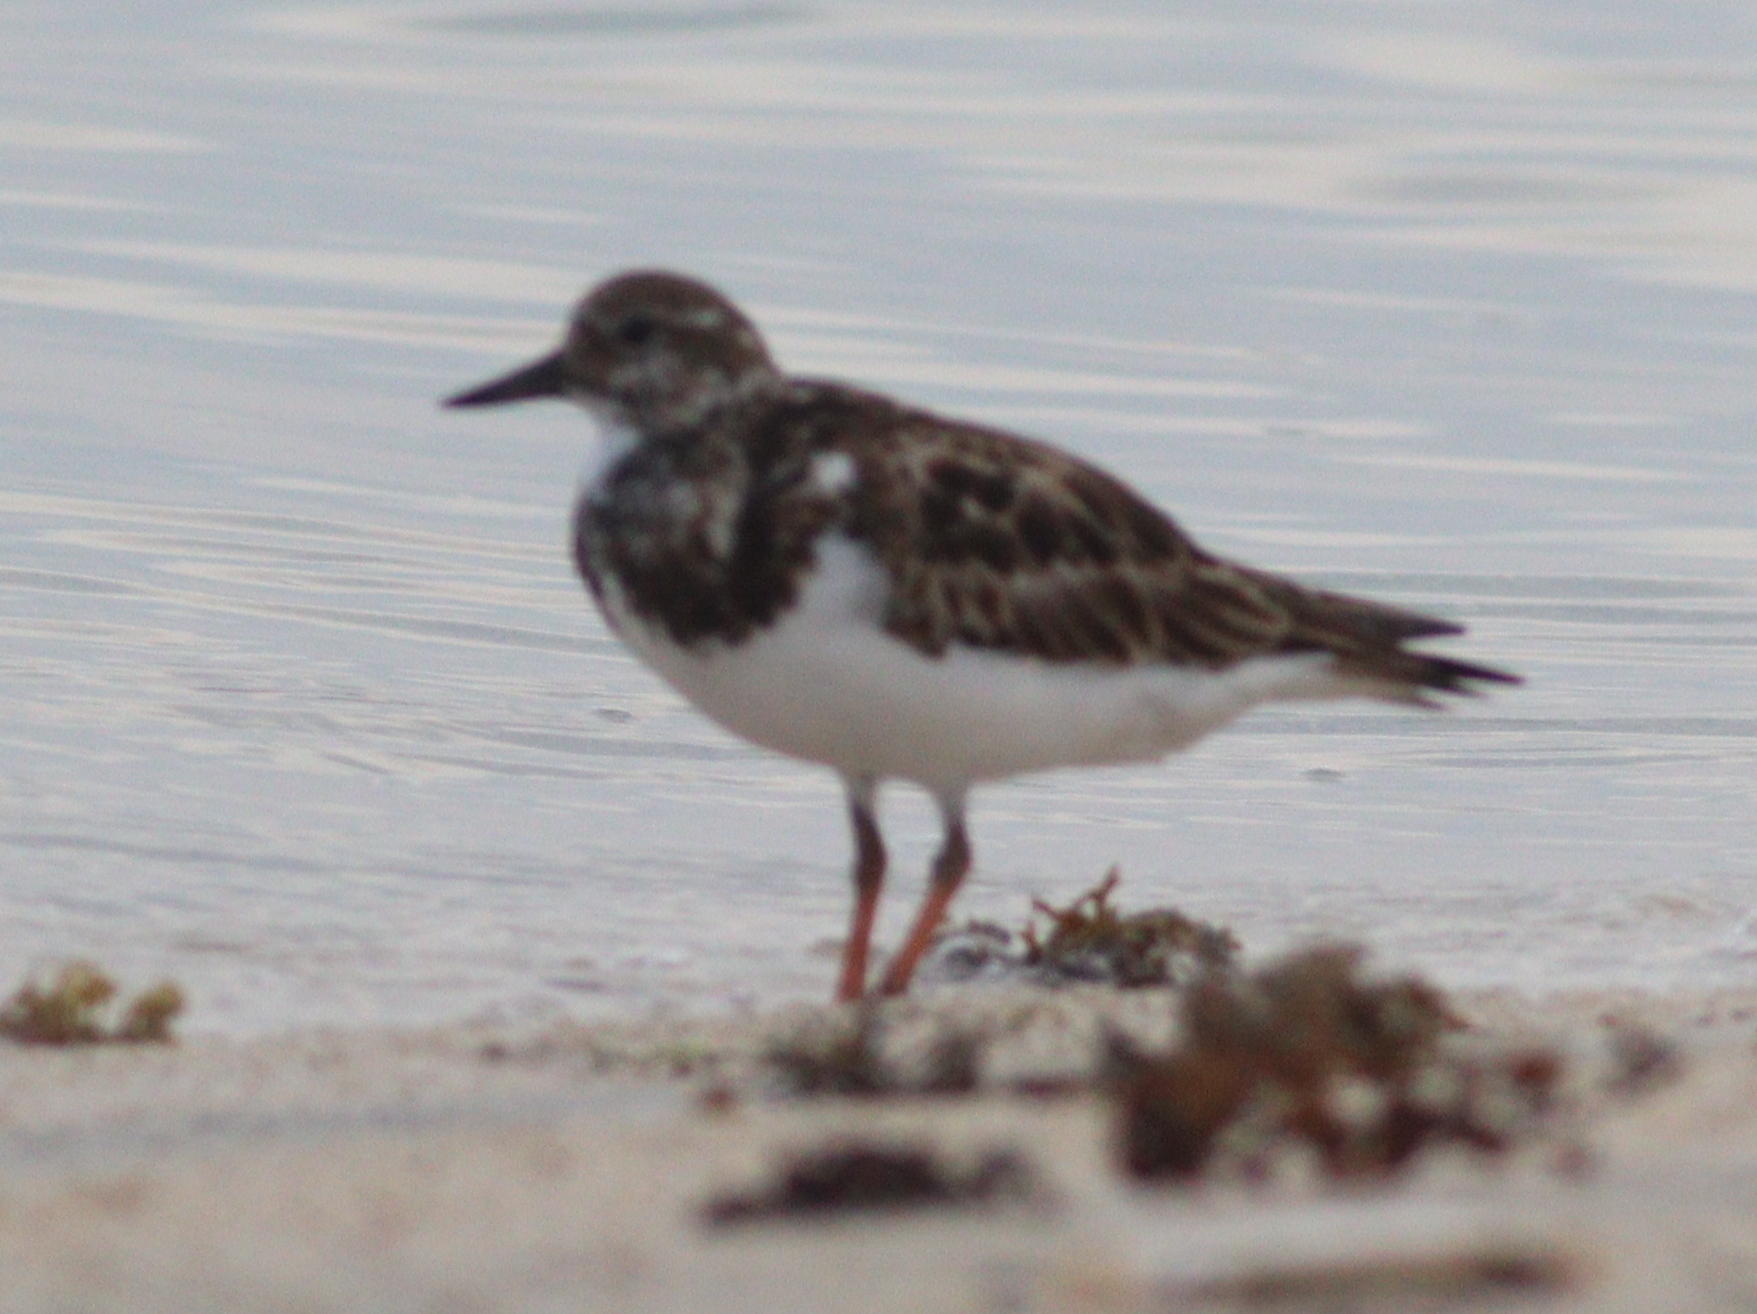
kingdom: Animalia
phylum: Chordata
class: Aves
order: Charadriiformes
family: Scolopacidae
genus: Arenaria
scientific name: Arenaria interpres
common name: Ruddy turnstone
